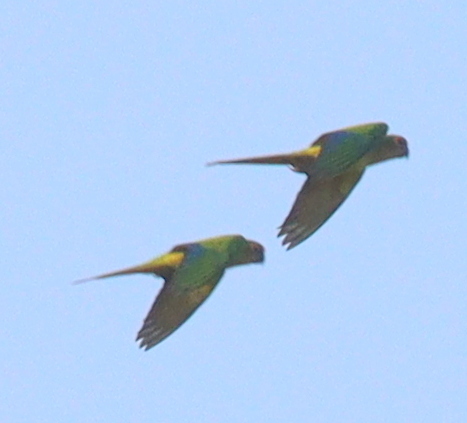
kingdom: Animalia
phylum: Chordata
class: Aves
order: Psittaciformes
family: Psittacidae
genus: Aratinga
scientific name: Aratinga aurea
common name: Peach-fronted parakeet
